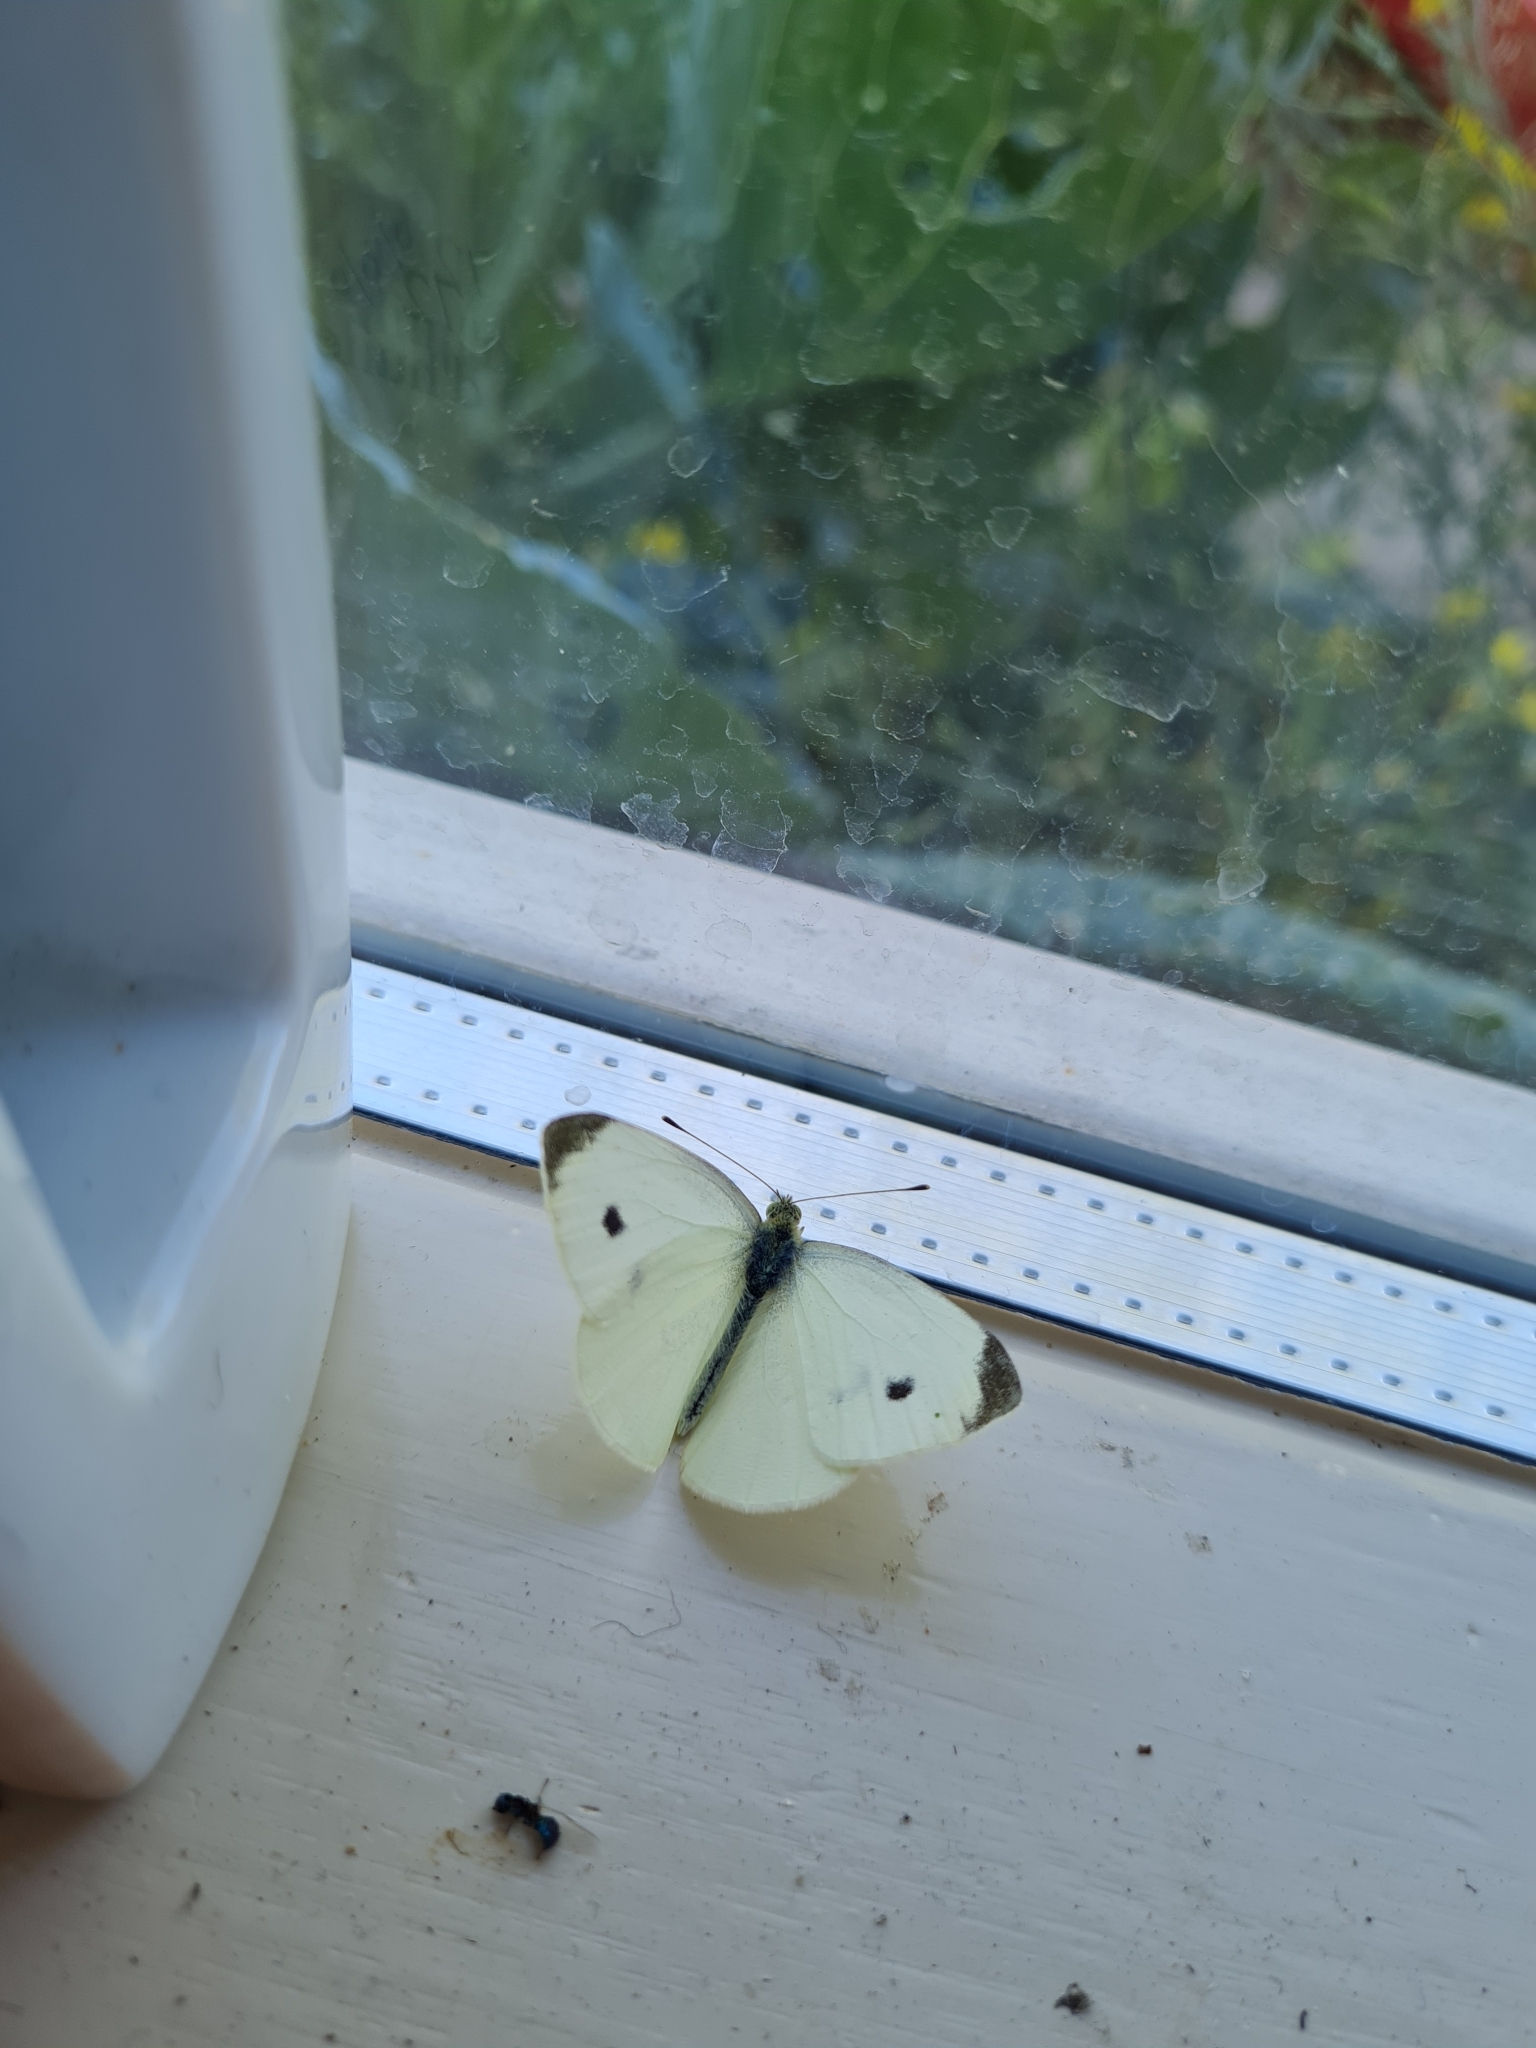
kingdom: Animalia
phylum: Arthropoda
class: Insecta
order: Lepidoptera
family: Pieridae
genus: Pieris
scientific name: Pieris rapae
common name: Small white
